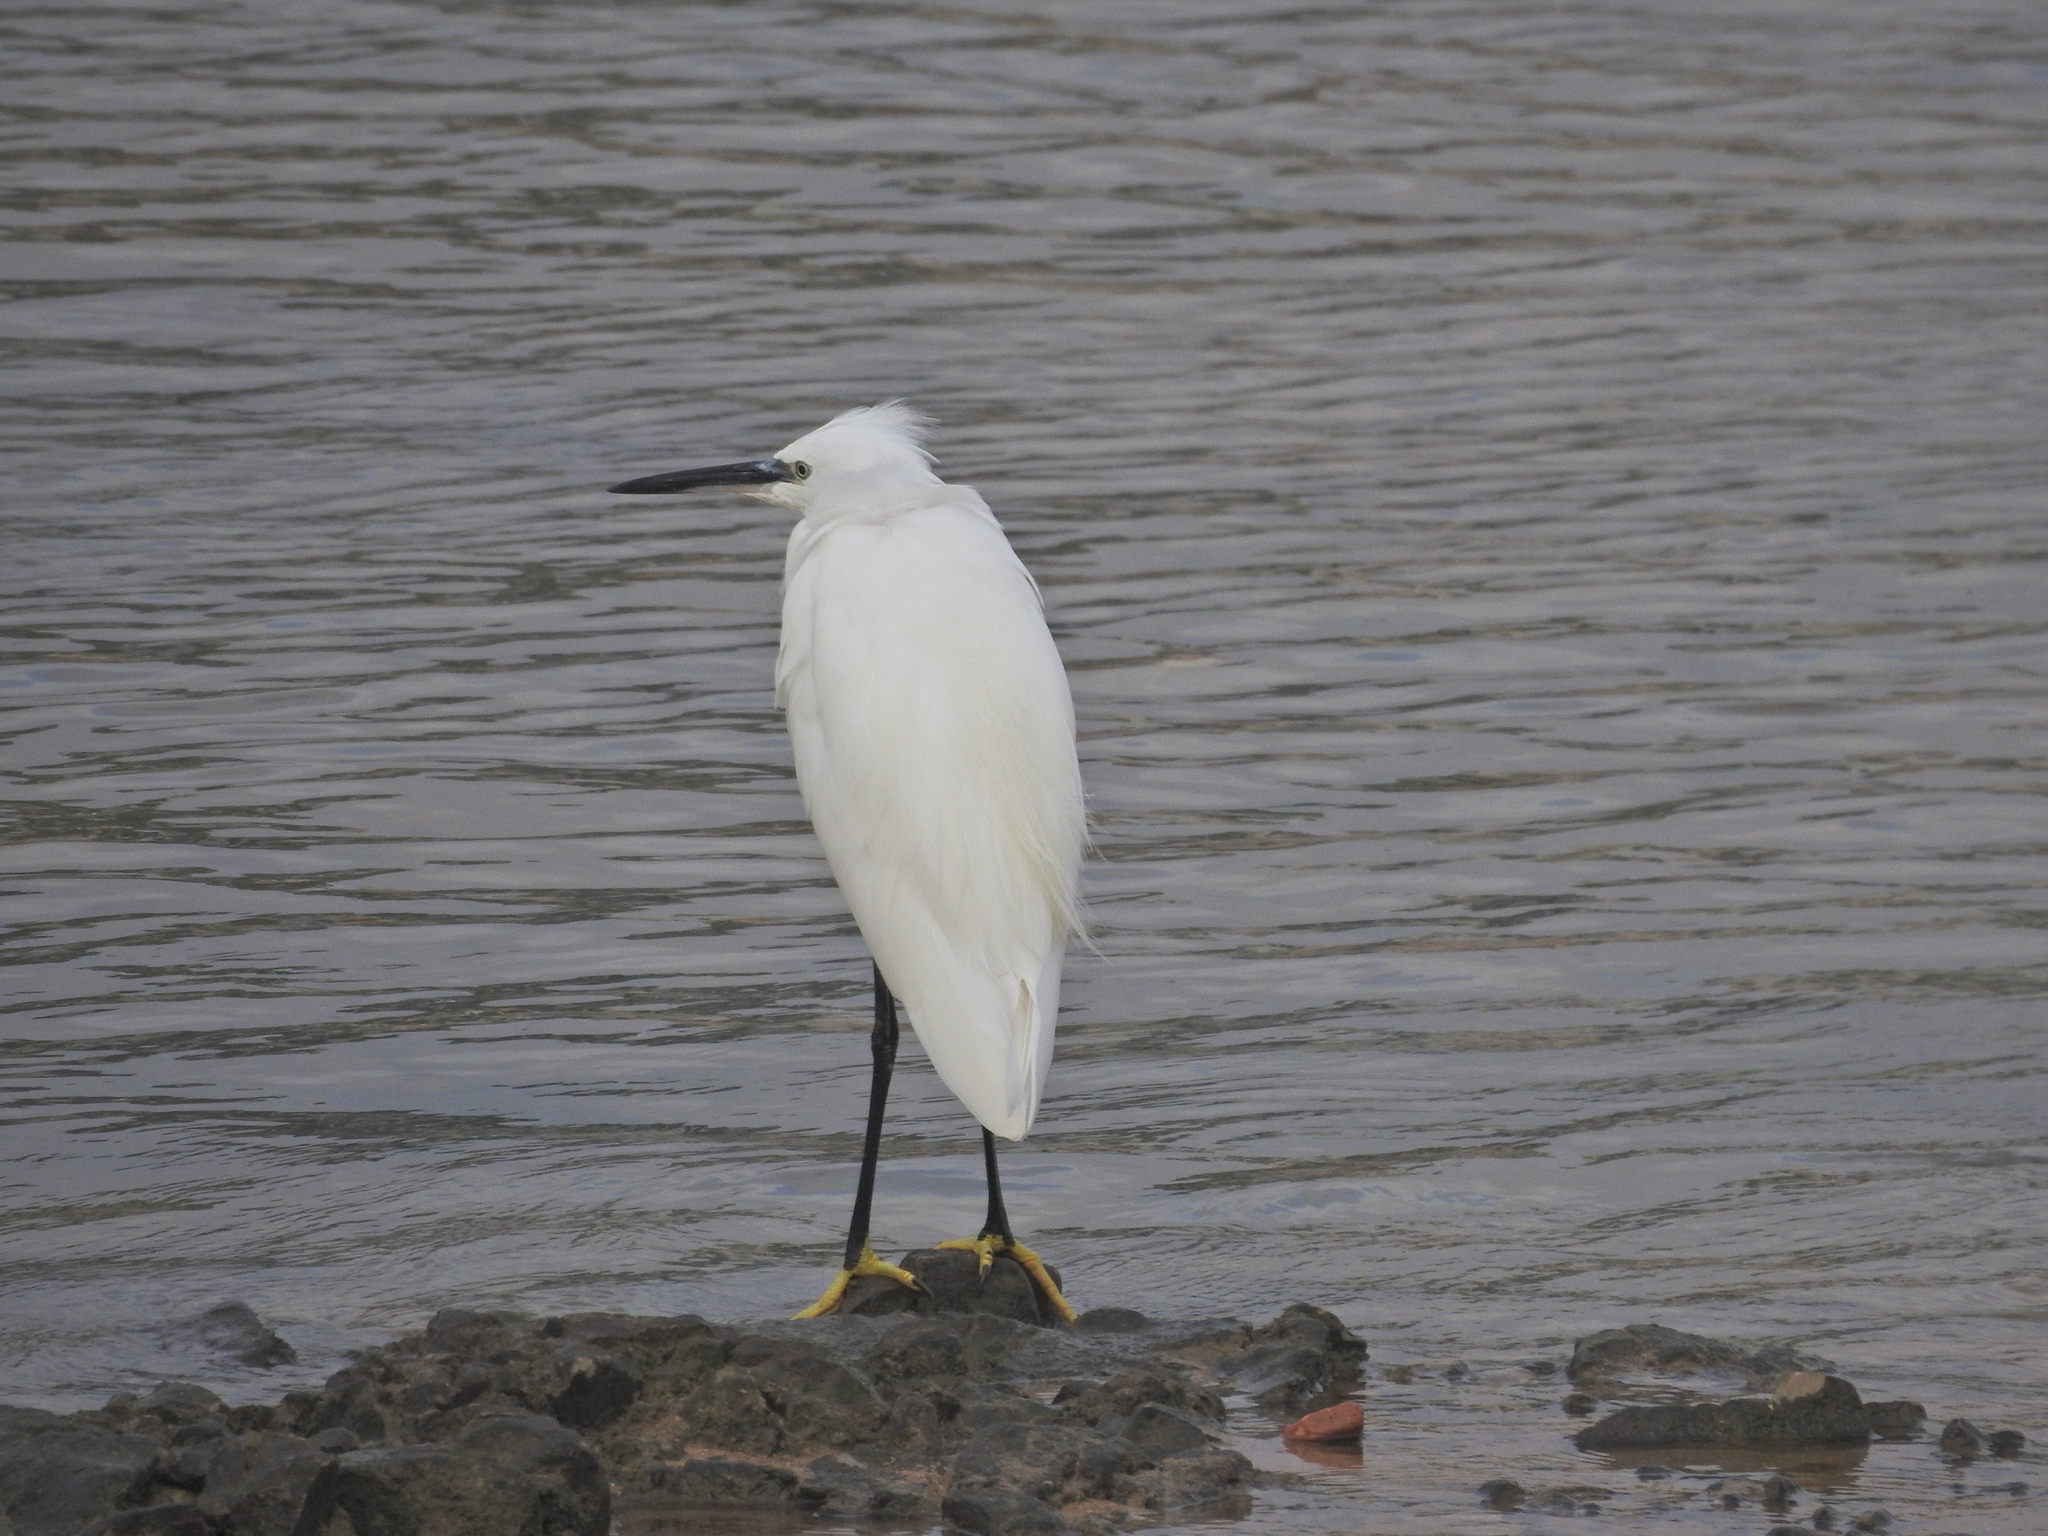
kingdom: Animalia
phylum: Chordata
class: Aves
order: Pelecaniformes
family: Ardeidae
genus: Egretta
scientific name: Egretta garzetta
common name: Little egret
